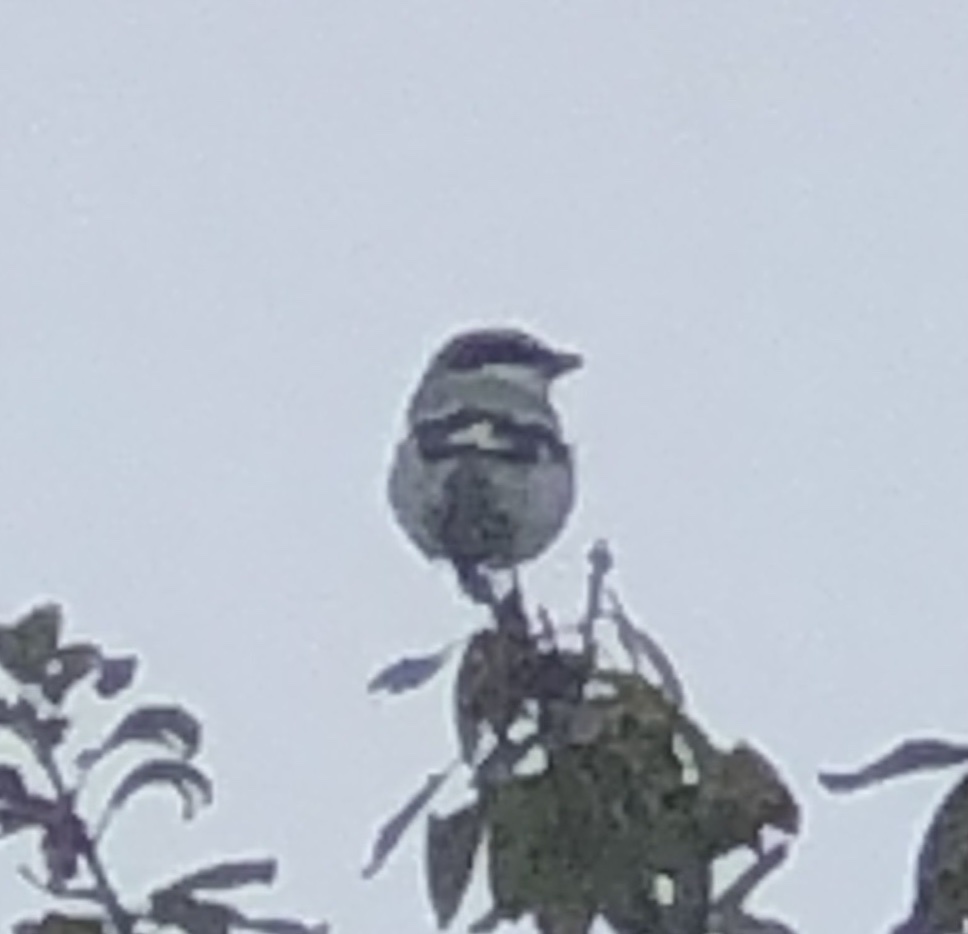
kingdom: Animalia
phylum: Chordata
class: Aves
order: Passeriformes
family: Laniidae
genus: Lanius
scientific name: Lanius ludovicianus
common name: Loggerhead shrike
